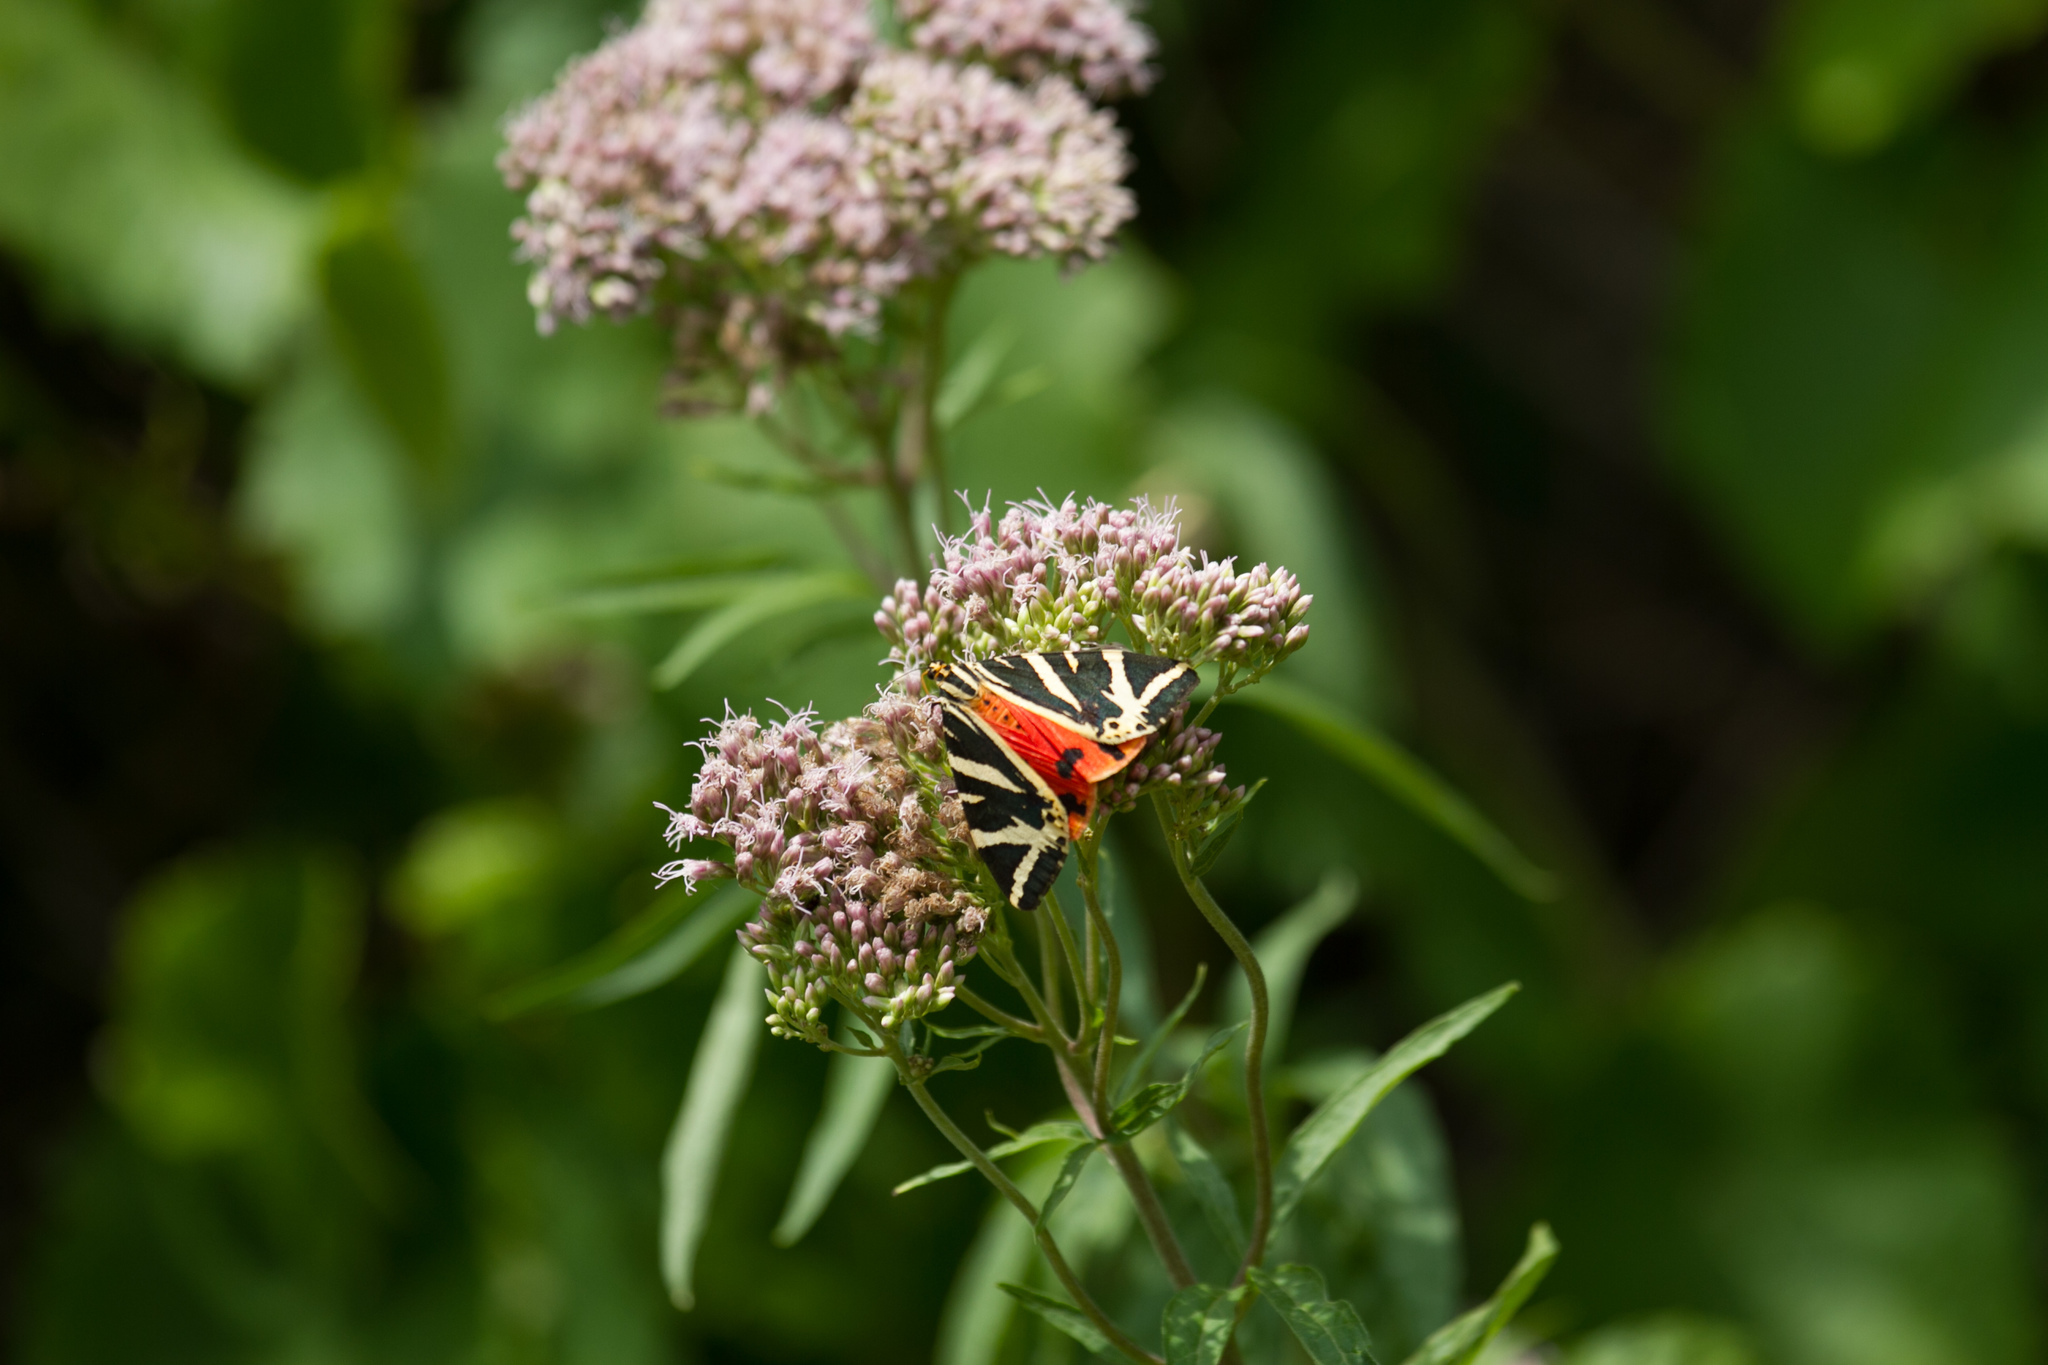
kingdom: Animalia
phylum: Arthropoda
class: Insecta
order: Lepidoptera
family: Erebidae
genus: Euplagia
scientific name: Euplagia quadripunctaria
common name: Jersey tiger
